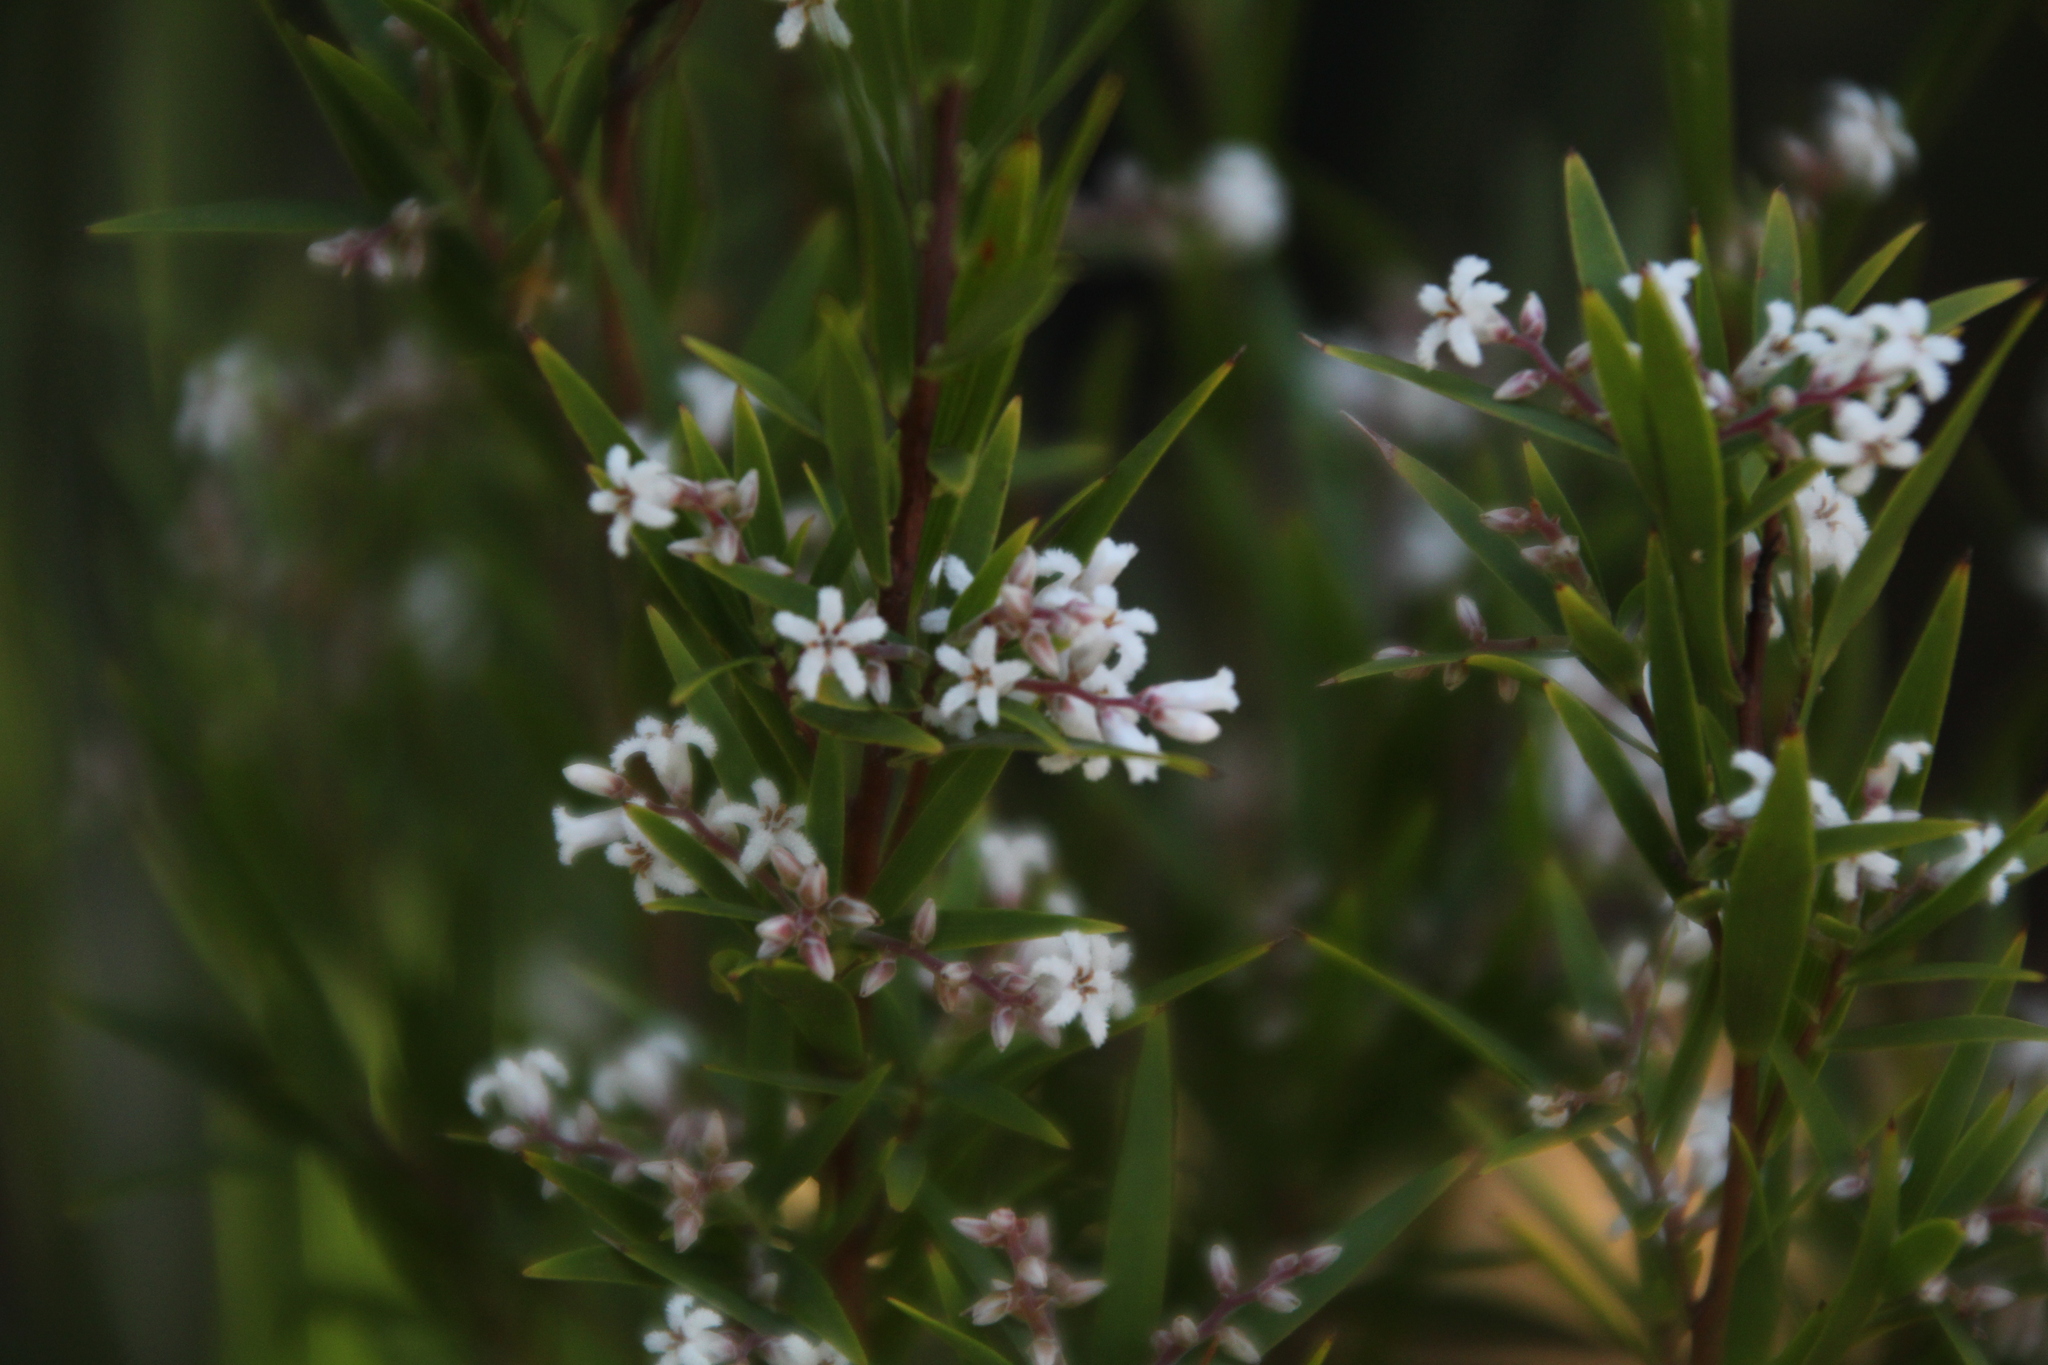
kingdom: Plantae
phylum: Tracheophyta
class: Magnoliopsida
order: Ericales
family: Ericaceae
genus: Leucopogon
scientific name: Leucopogon australis
